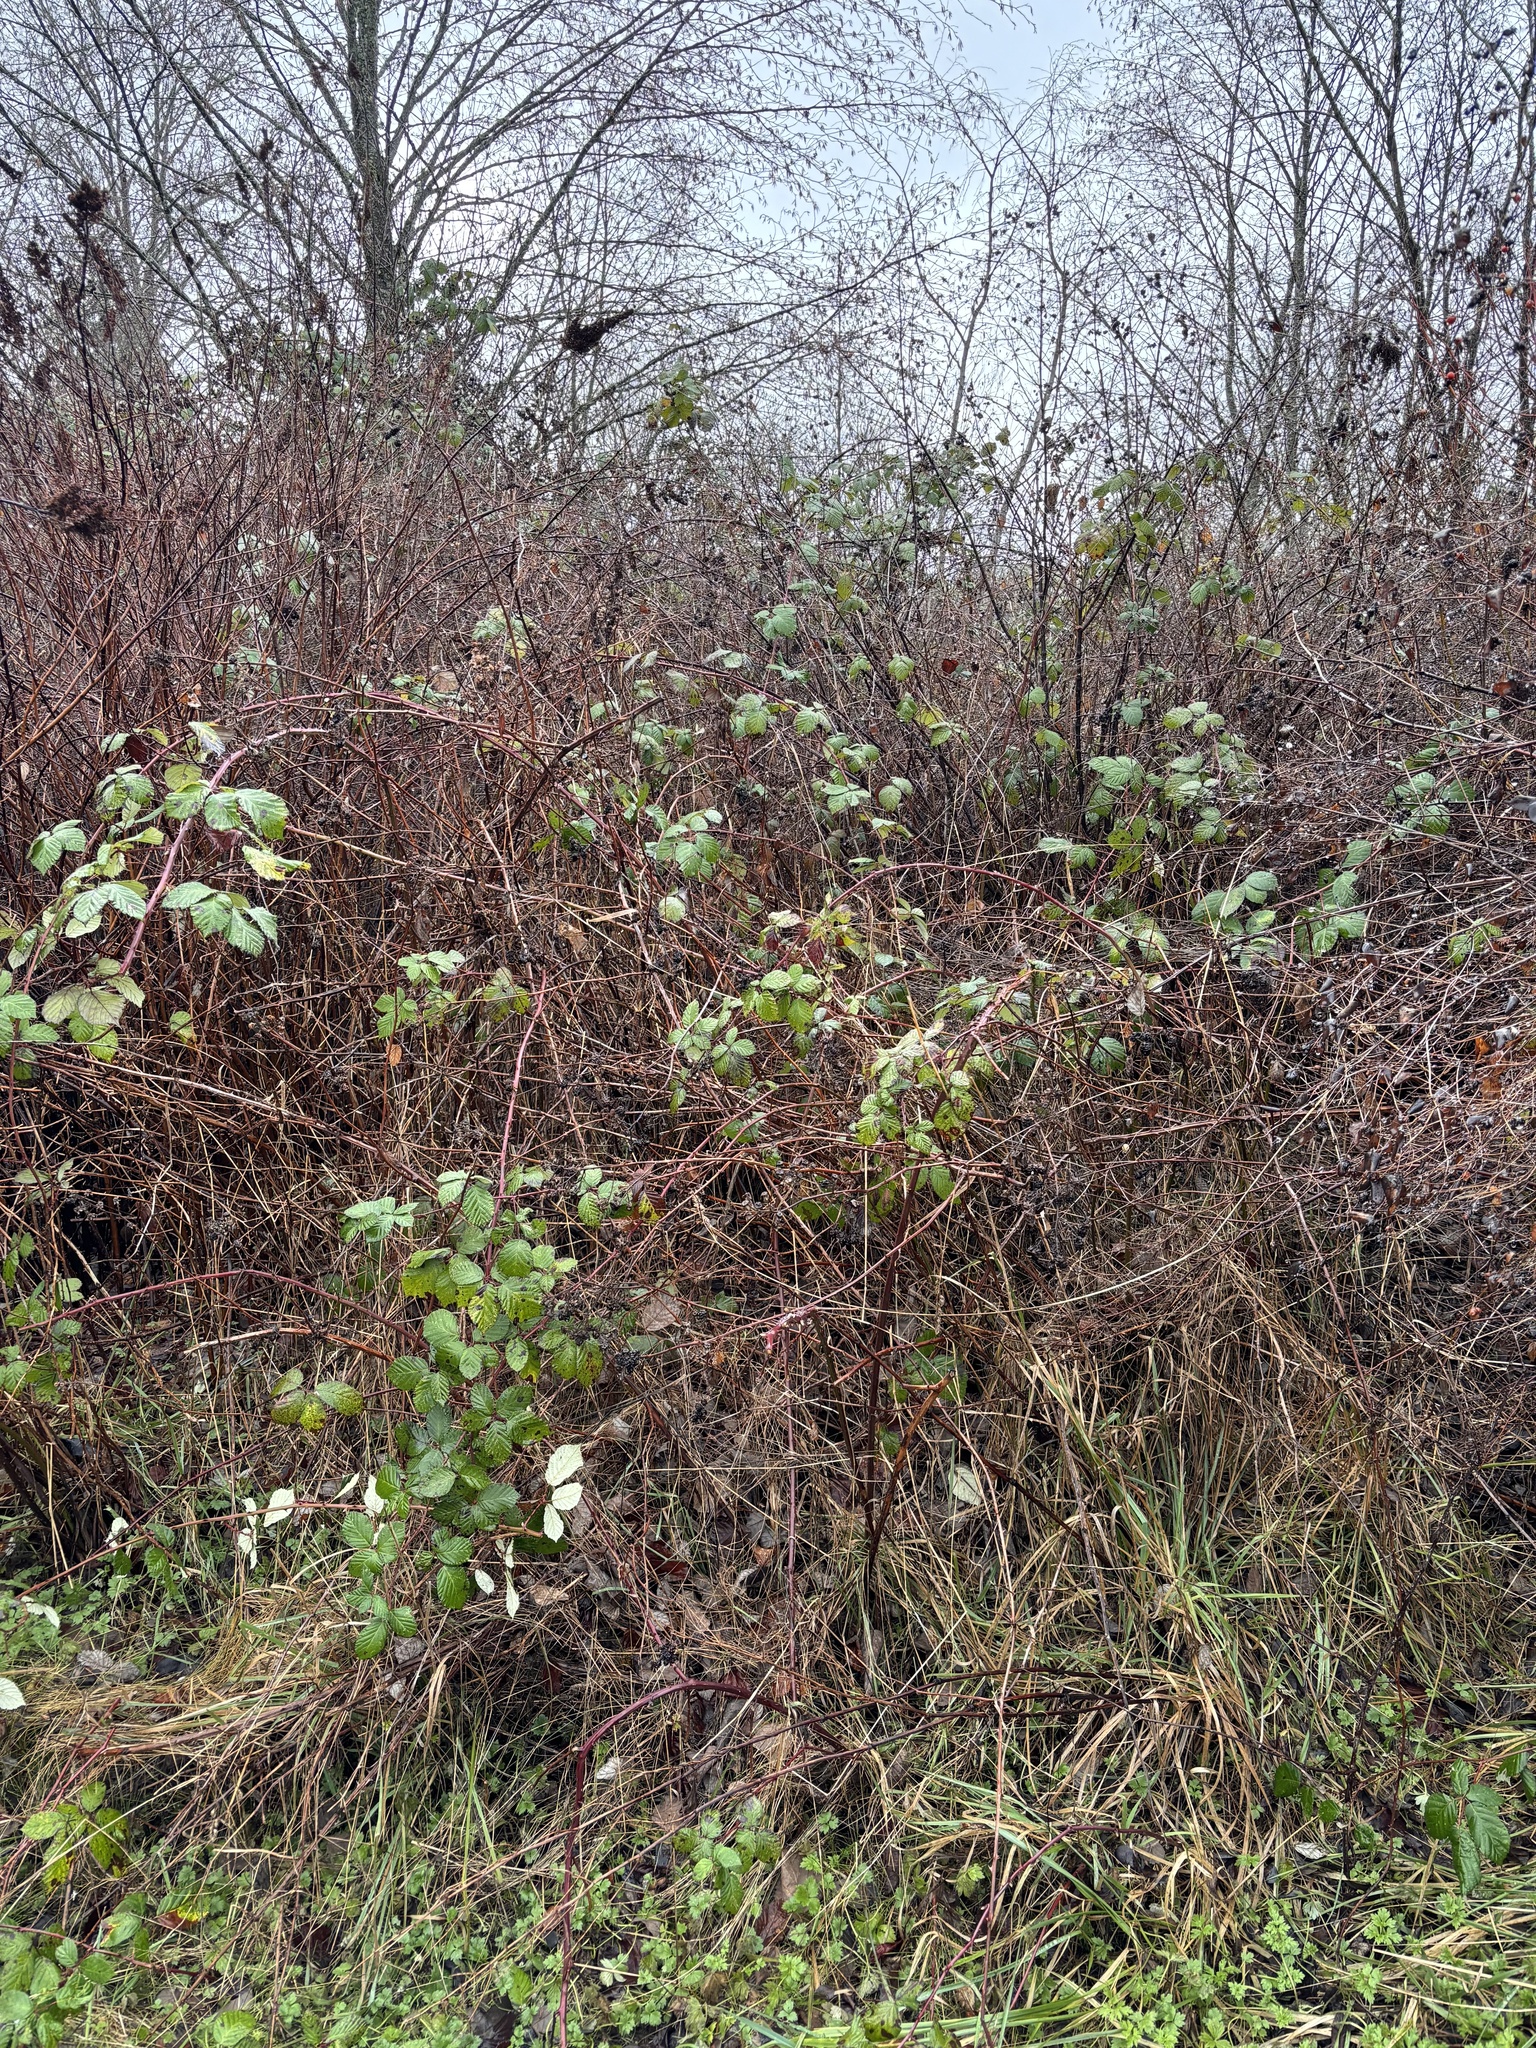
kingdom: Plantae
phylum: Tracheophyta
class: Magnoliopsida
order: Rosales
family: Rosaceae
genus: Rubus
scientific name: Rubus bifrons
